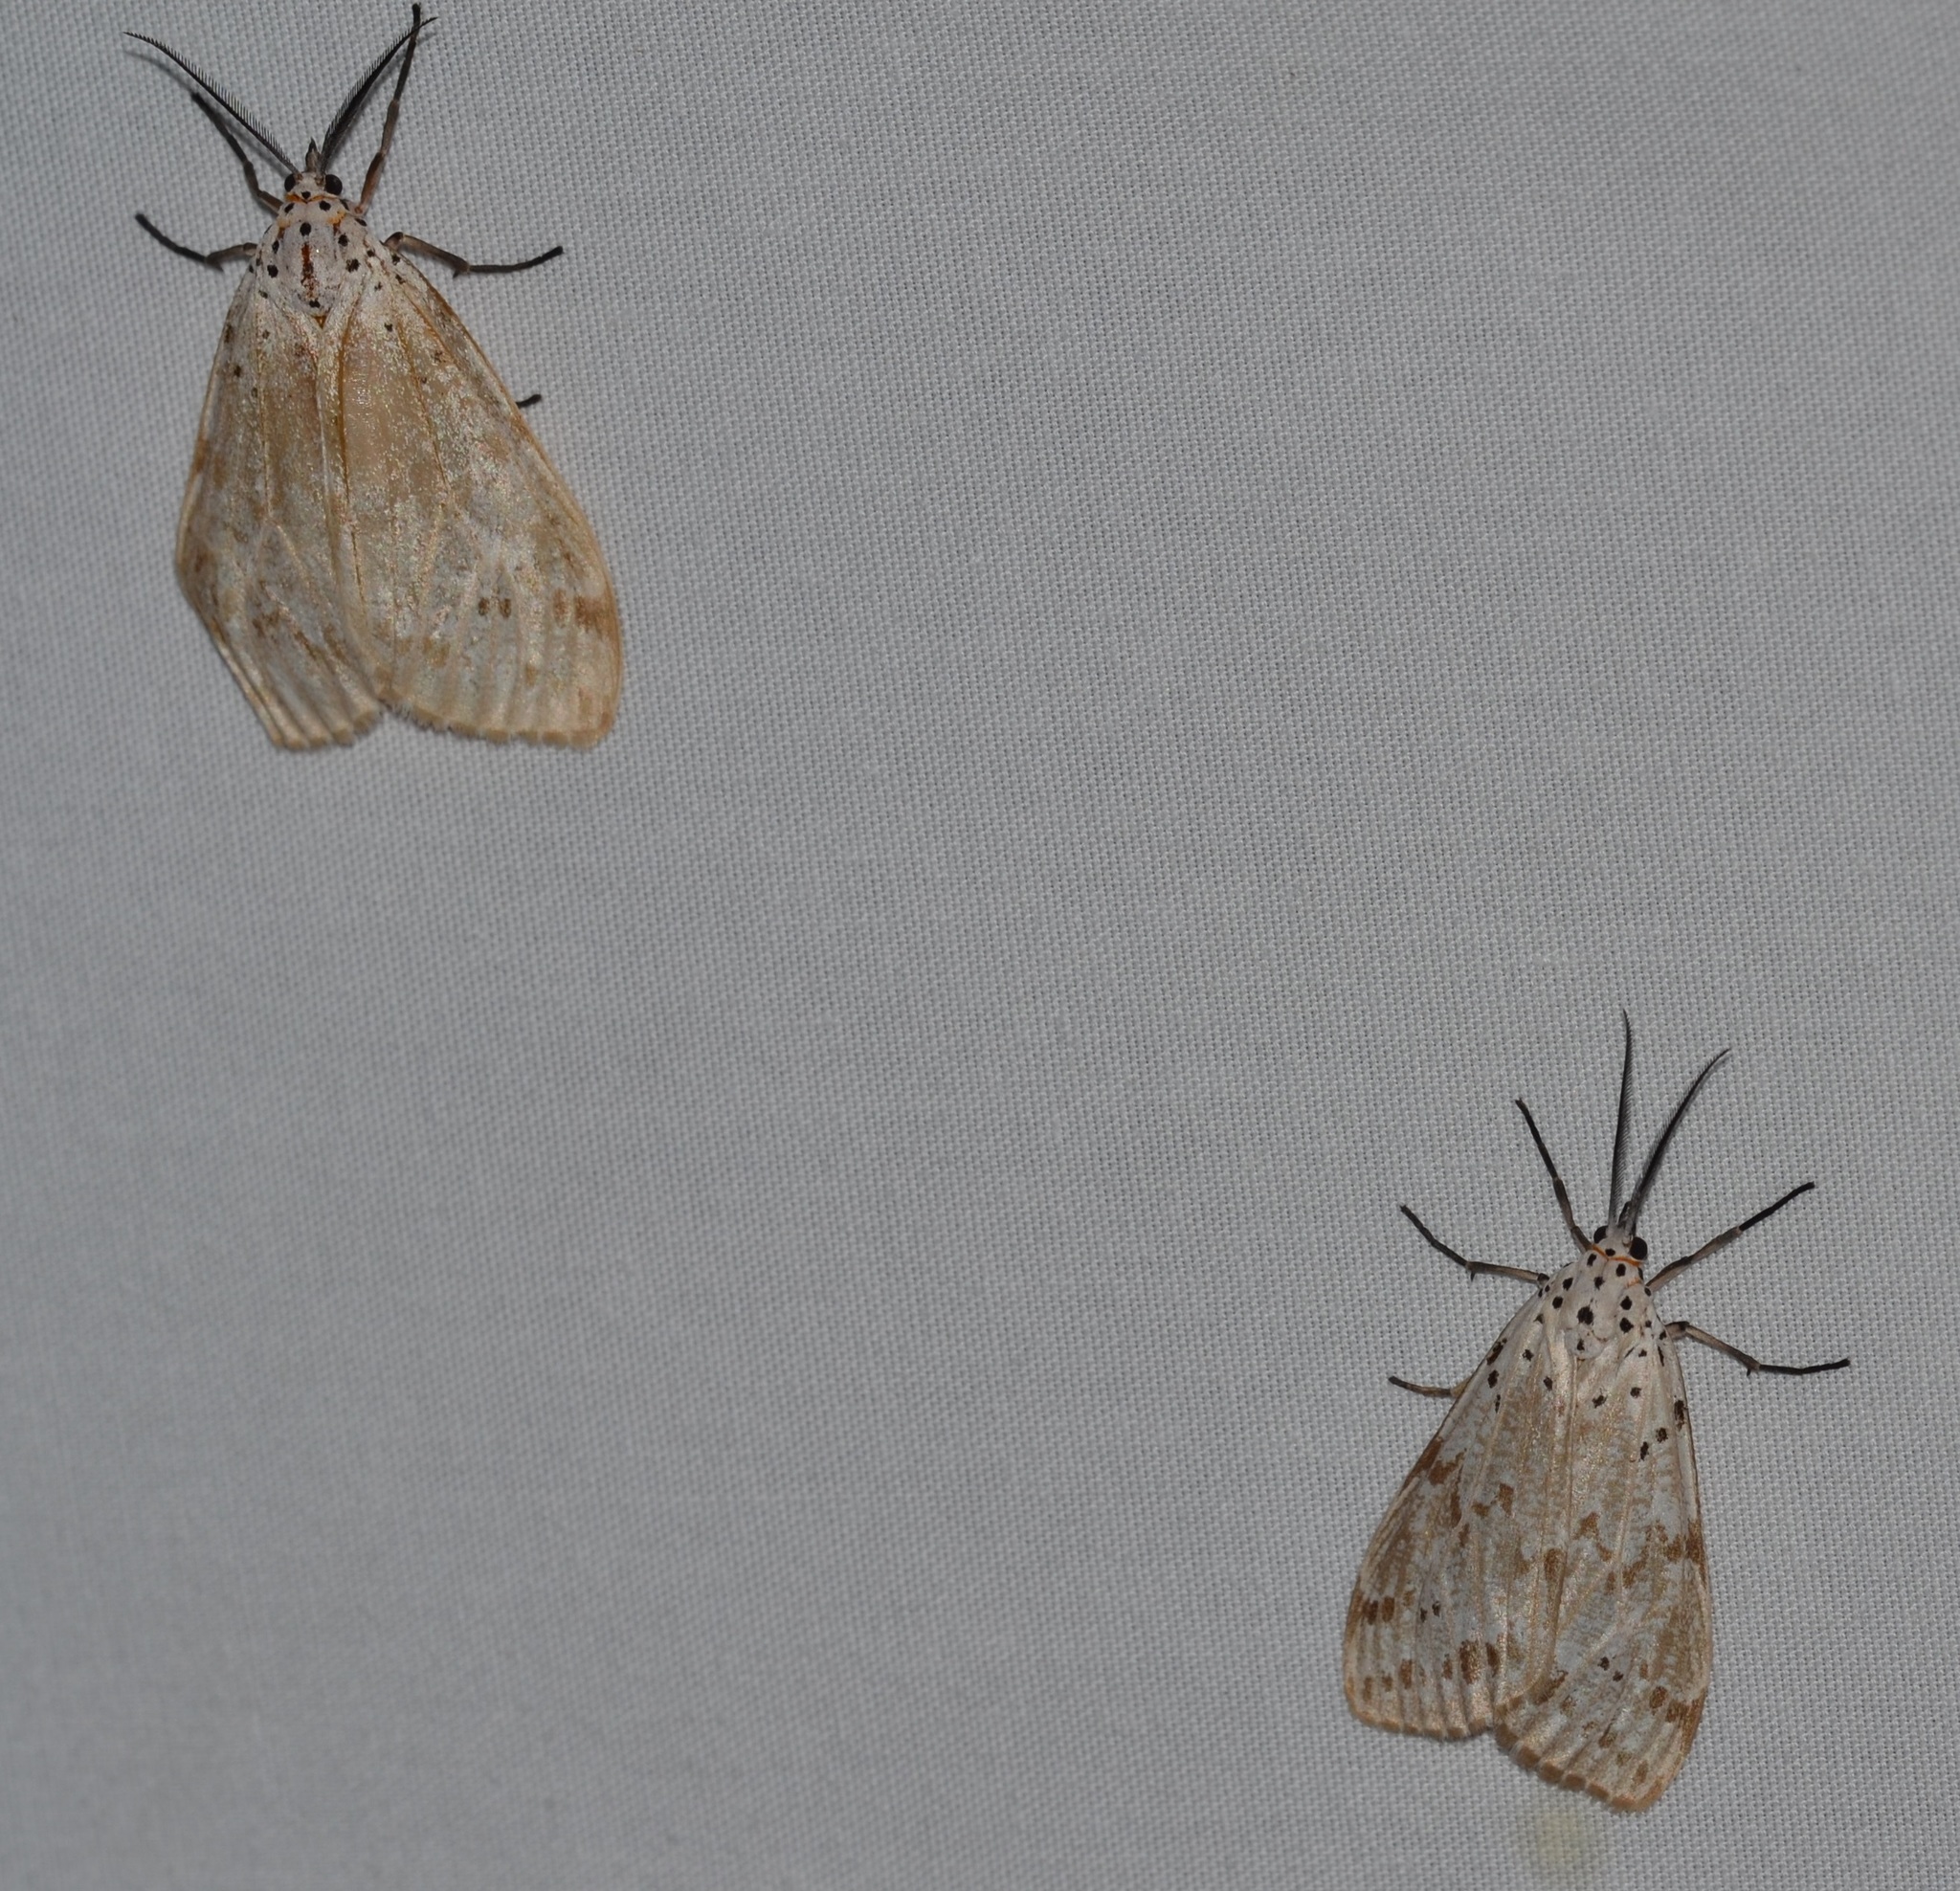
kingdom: Animalia
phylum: Arthropoda
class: Insecta
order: Lepidoptera
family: Erebidae
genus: Galtara
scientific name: Galtara extensa
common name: Madagascar moth
